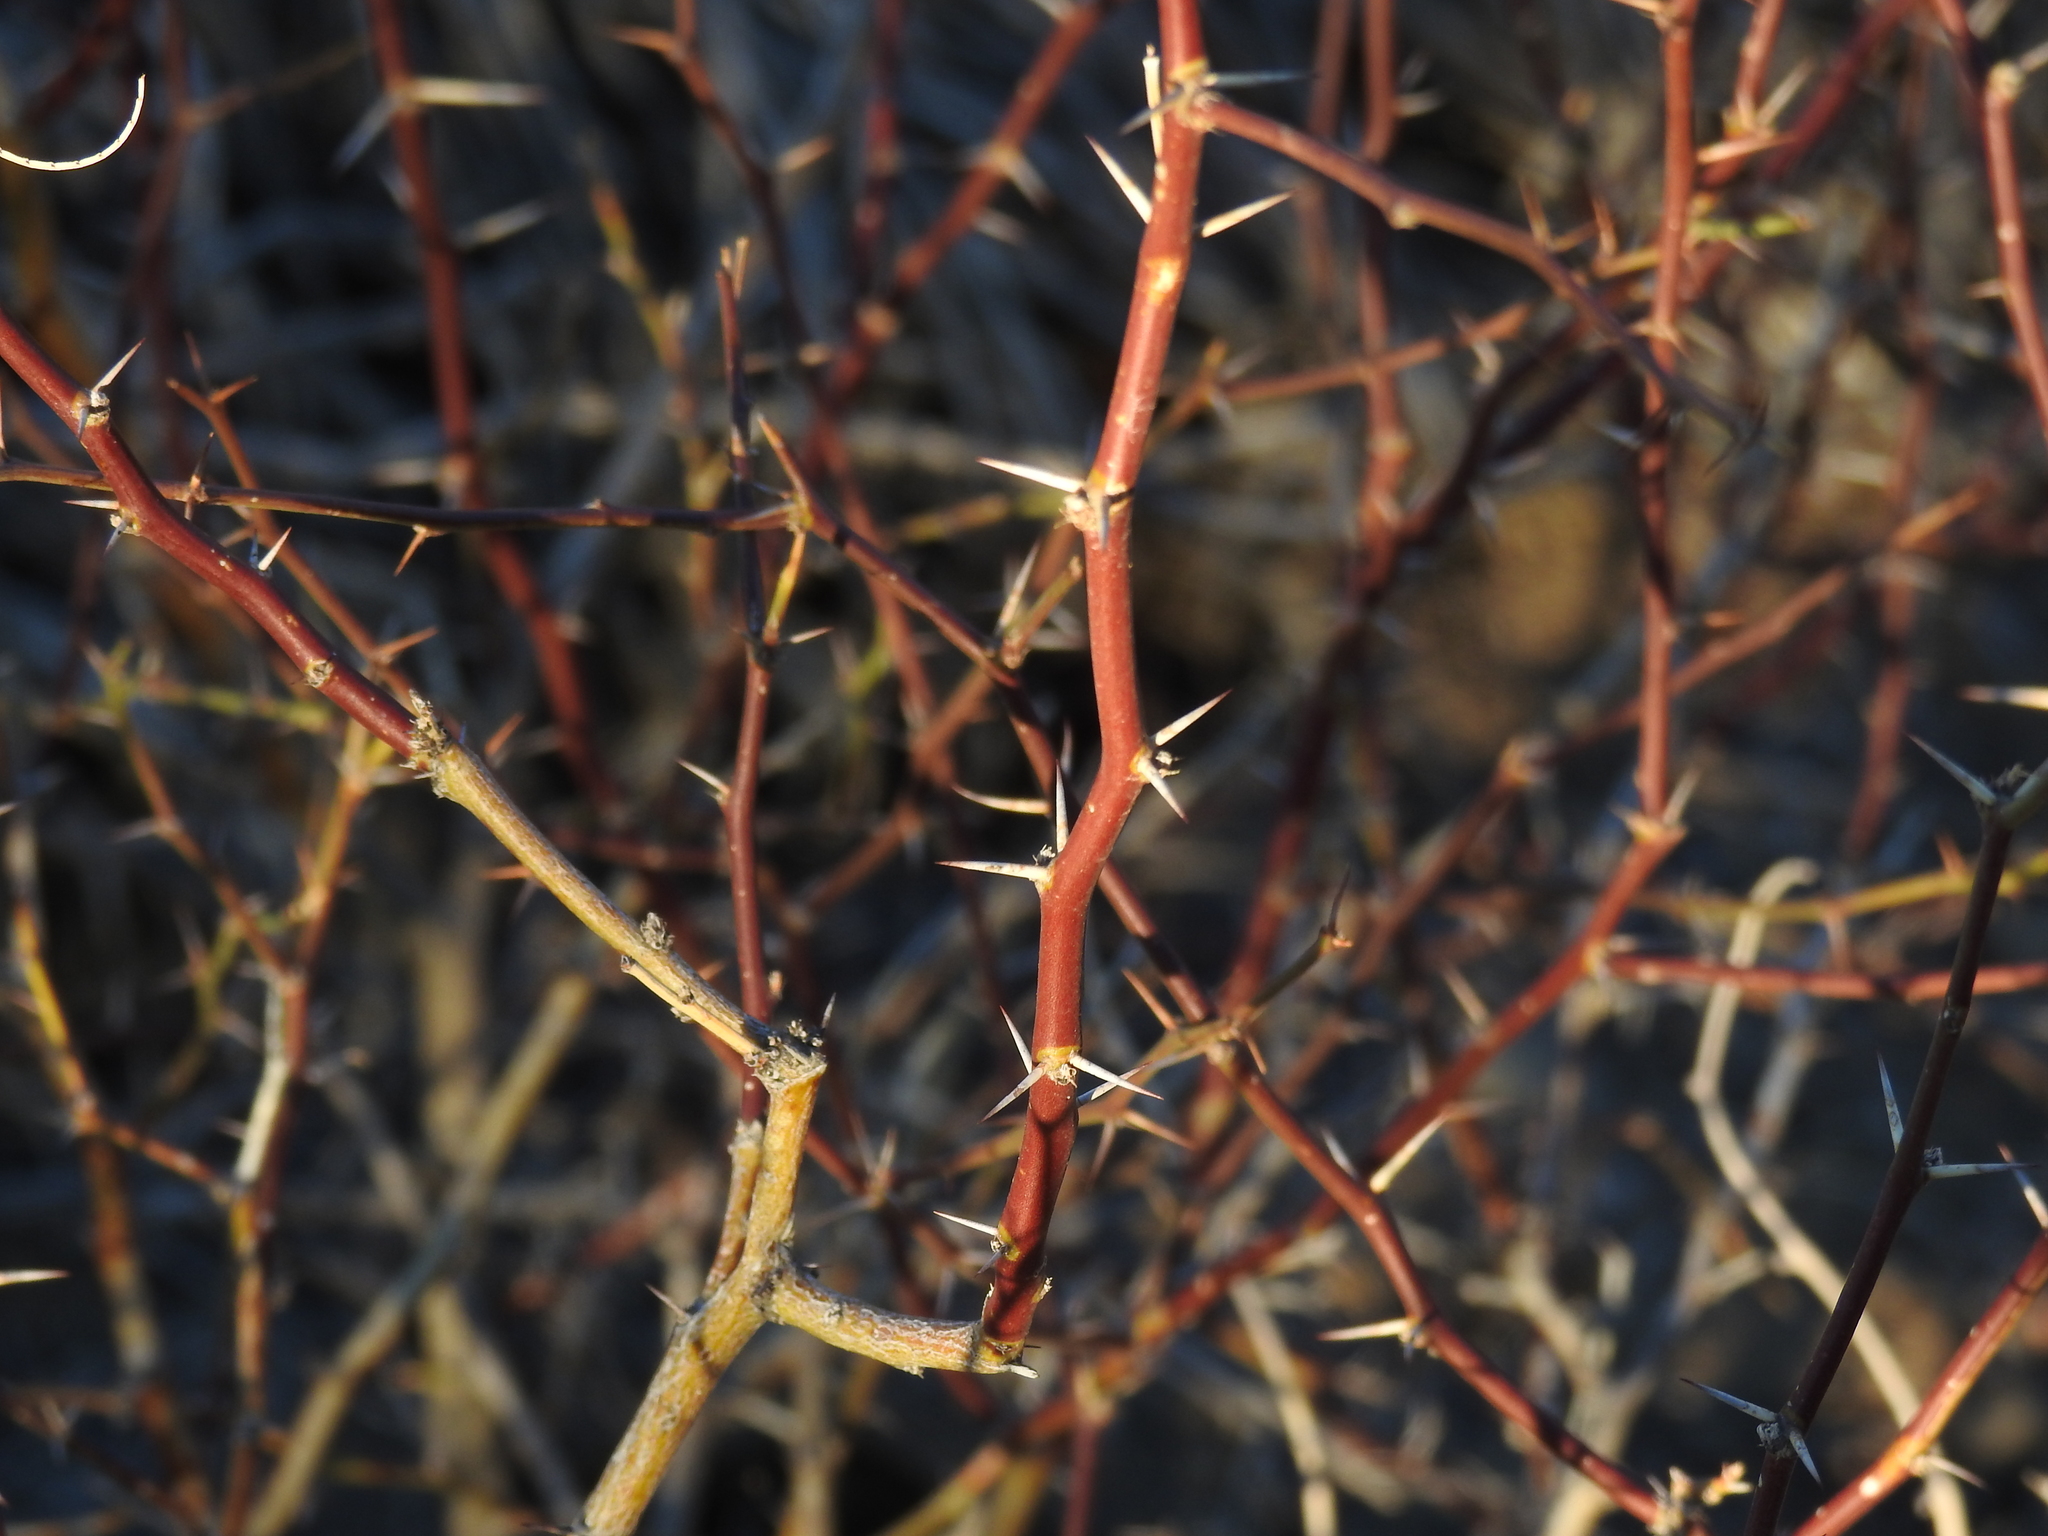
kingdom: Plantae
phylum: Tracheophyta
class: Magnoliopsida
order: Fabales
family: Fabaceae
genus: Vachellia
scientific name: Vachellia constricta
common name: Mescat acacia
